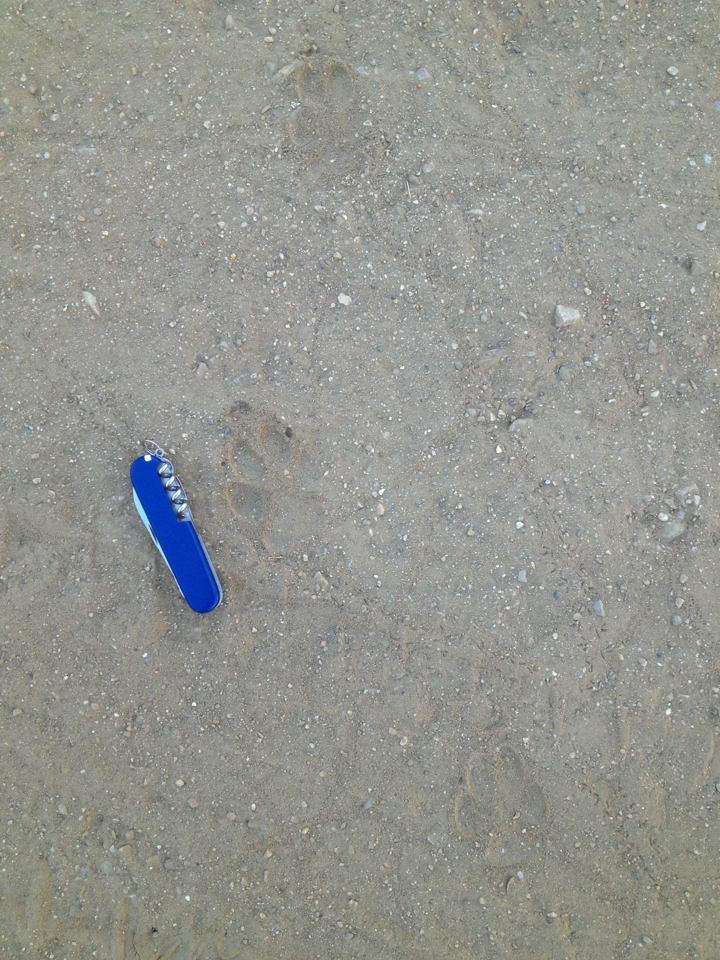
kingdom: Animalia
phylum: Chordata
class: Mammalia
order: Carnivora
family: Canidae
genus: Canis
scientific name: Canis latrans
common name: Coyote
